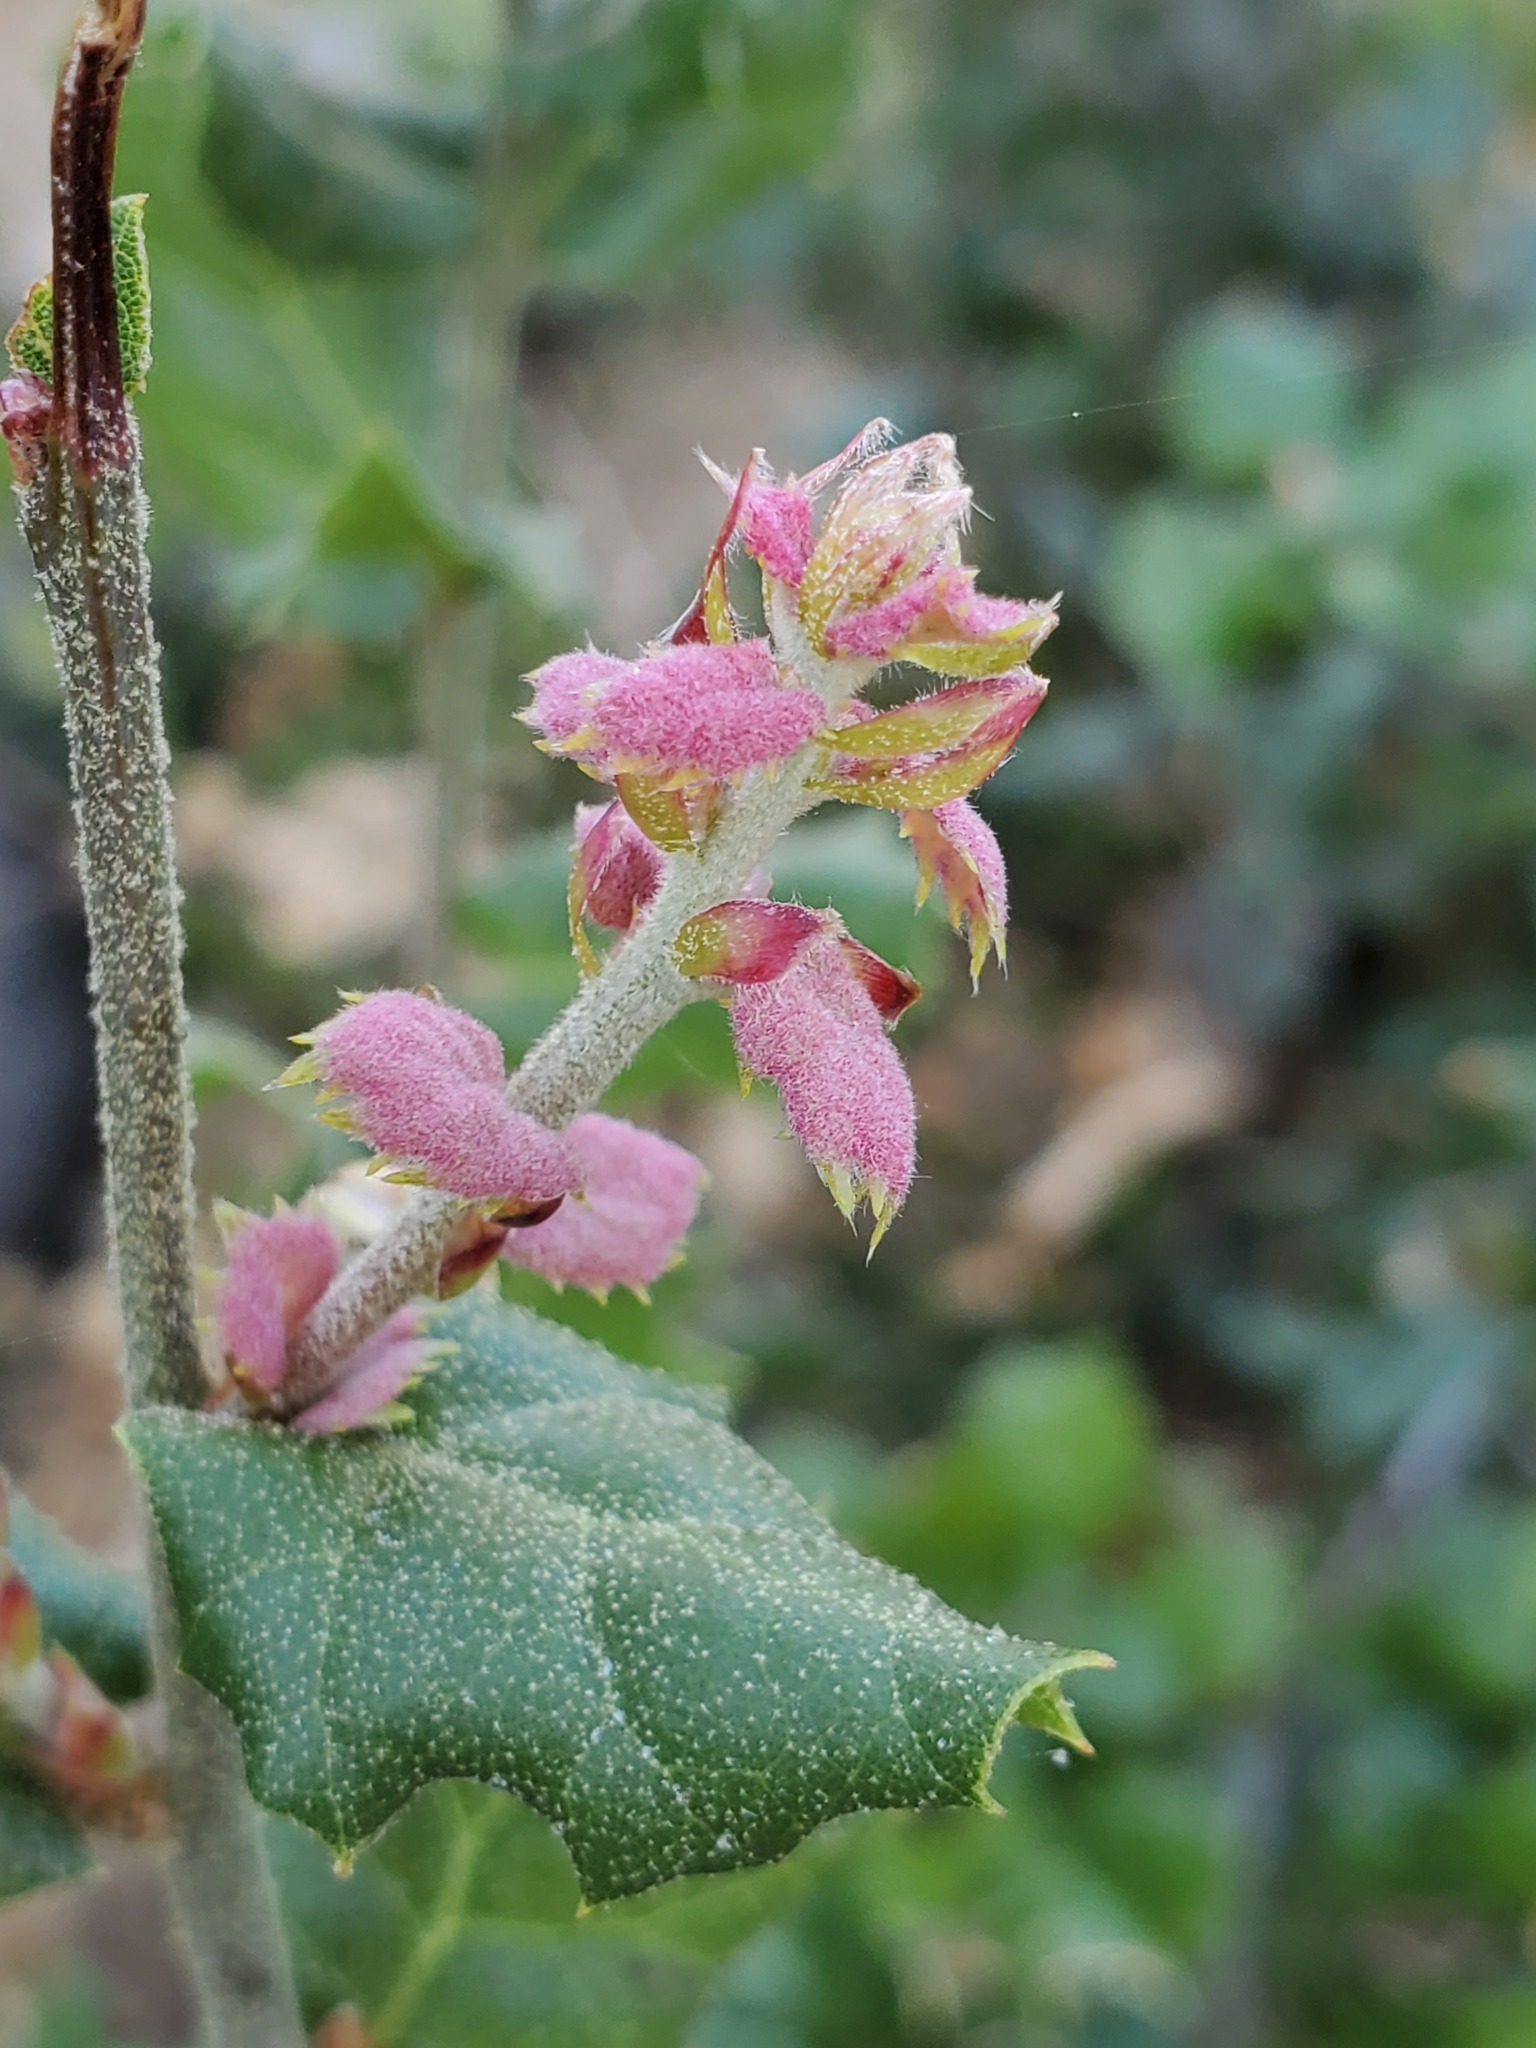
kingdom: Plantae
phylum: Tracheophyta
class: Magnoliopsida
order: Fagales
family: Fagaceae
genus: Quercus
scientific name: Quercus agrifolia
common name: California live oak
